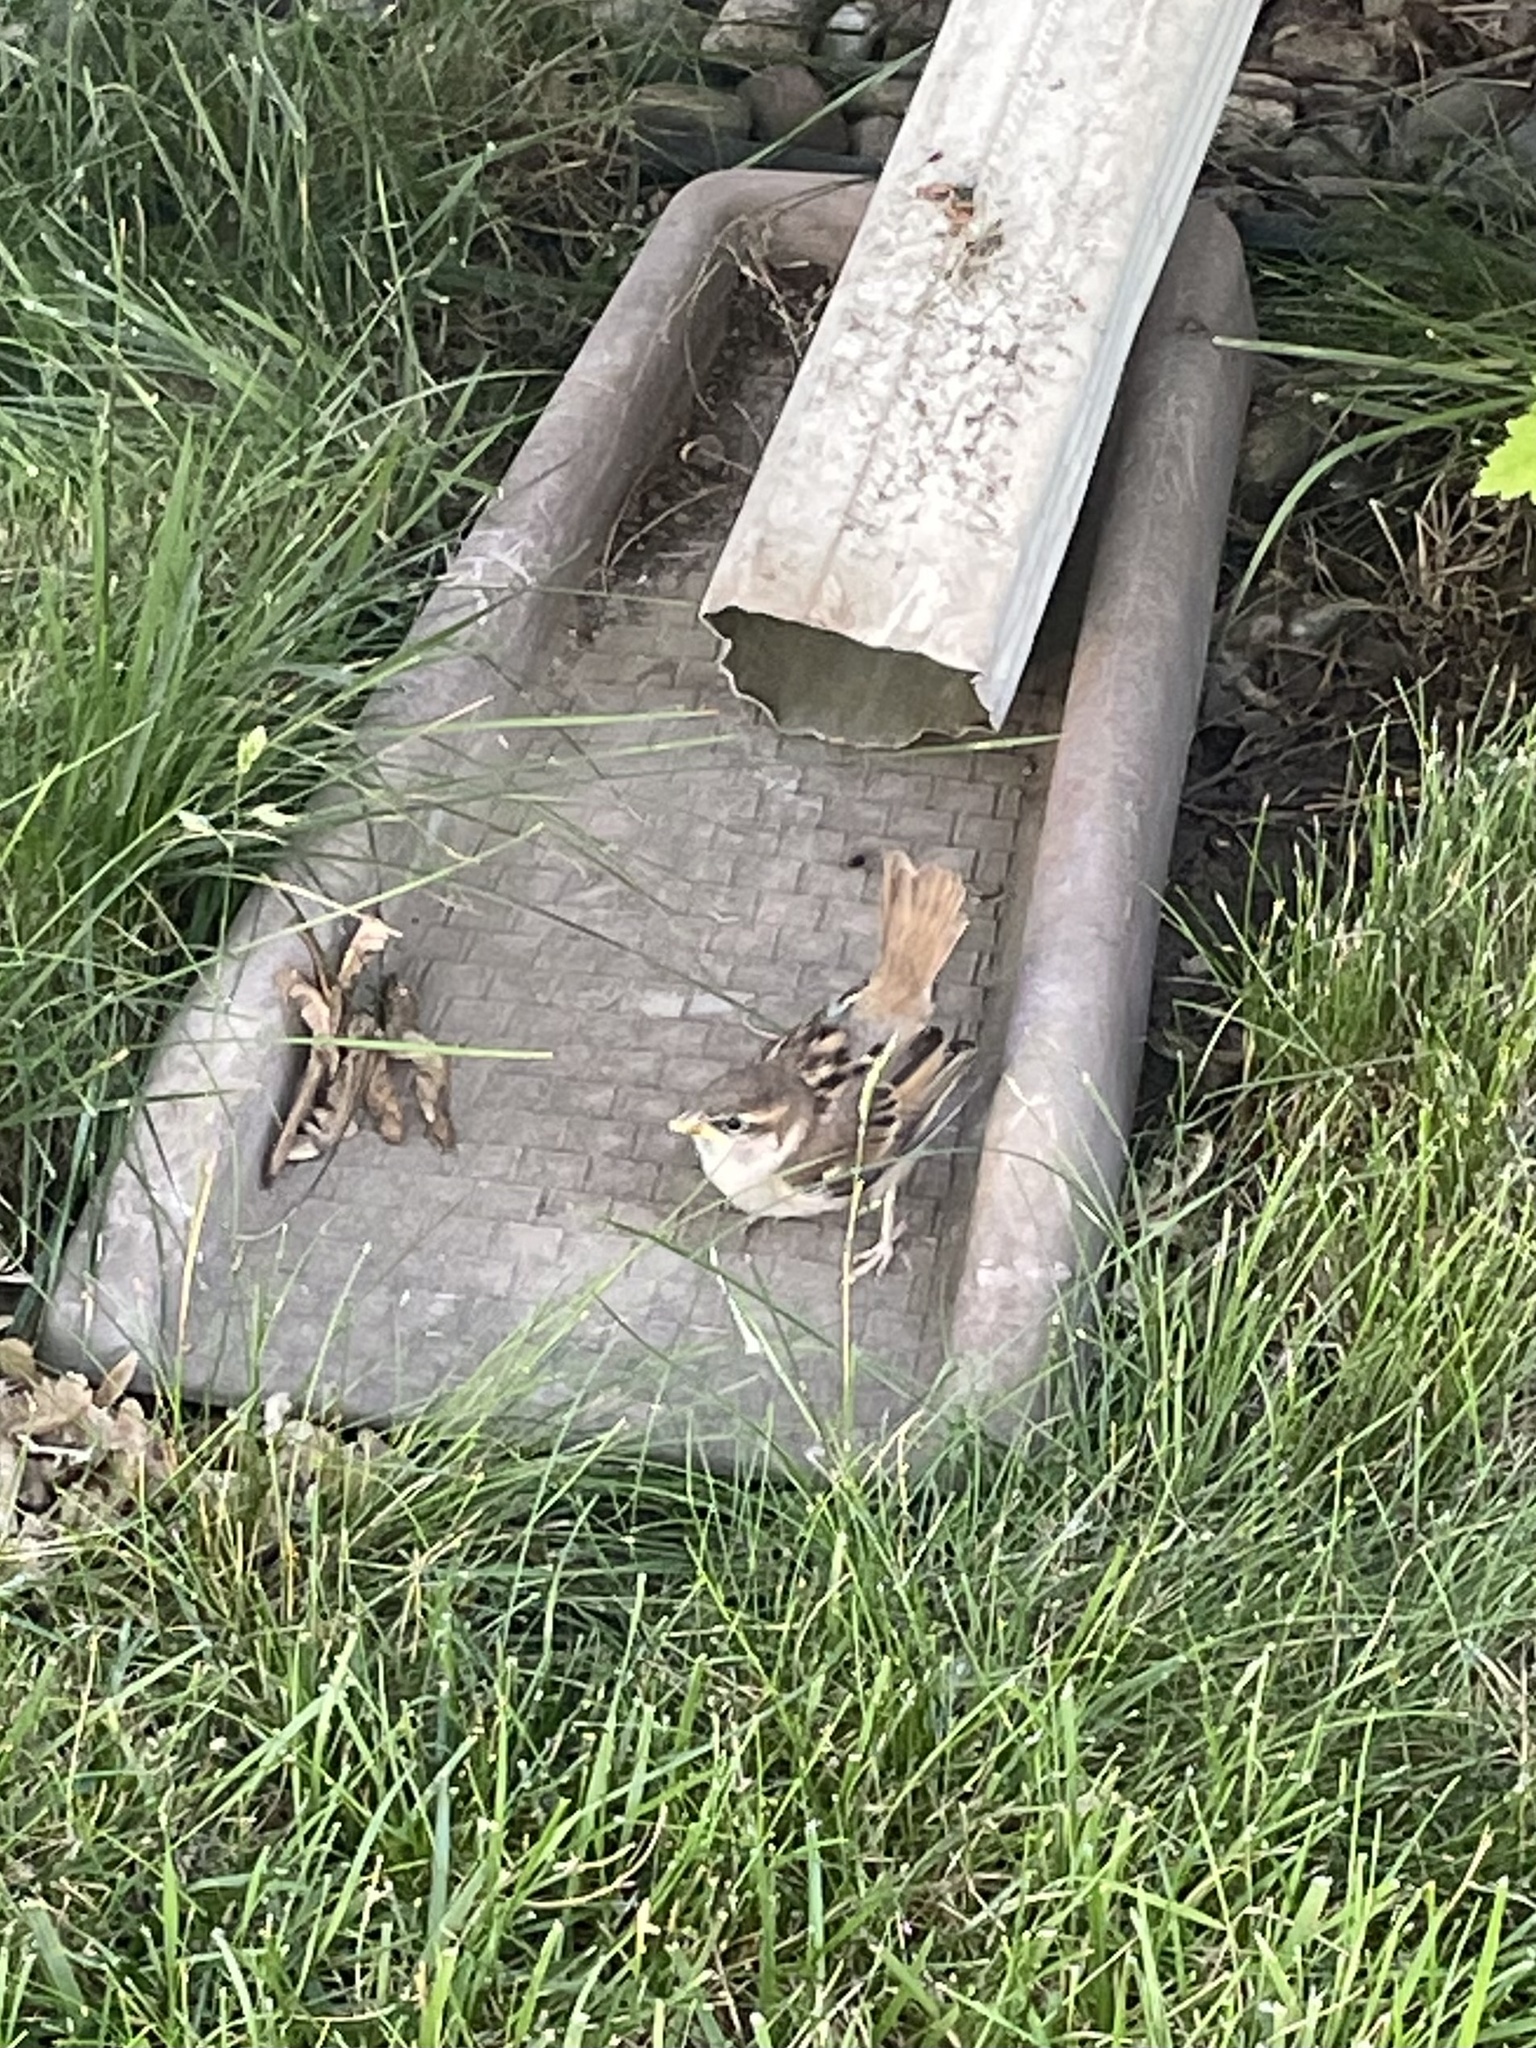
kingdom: Animalia
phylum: Chordata
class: Aves
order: Passeriformes
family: Passeridae
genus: Passer
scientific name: Passer domesticus
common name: House sparrow
